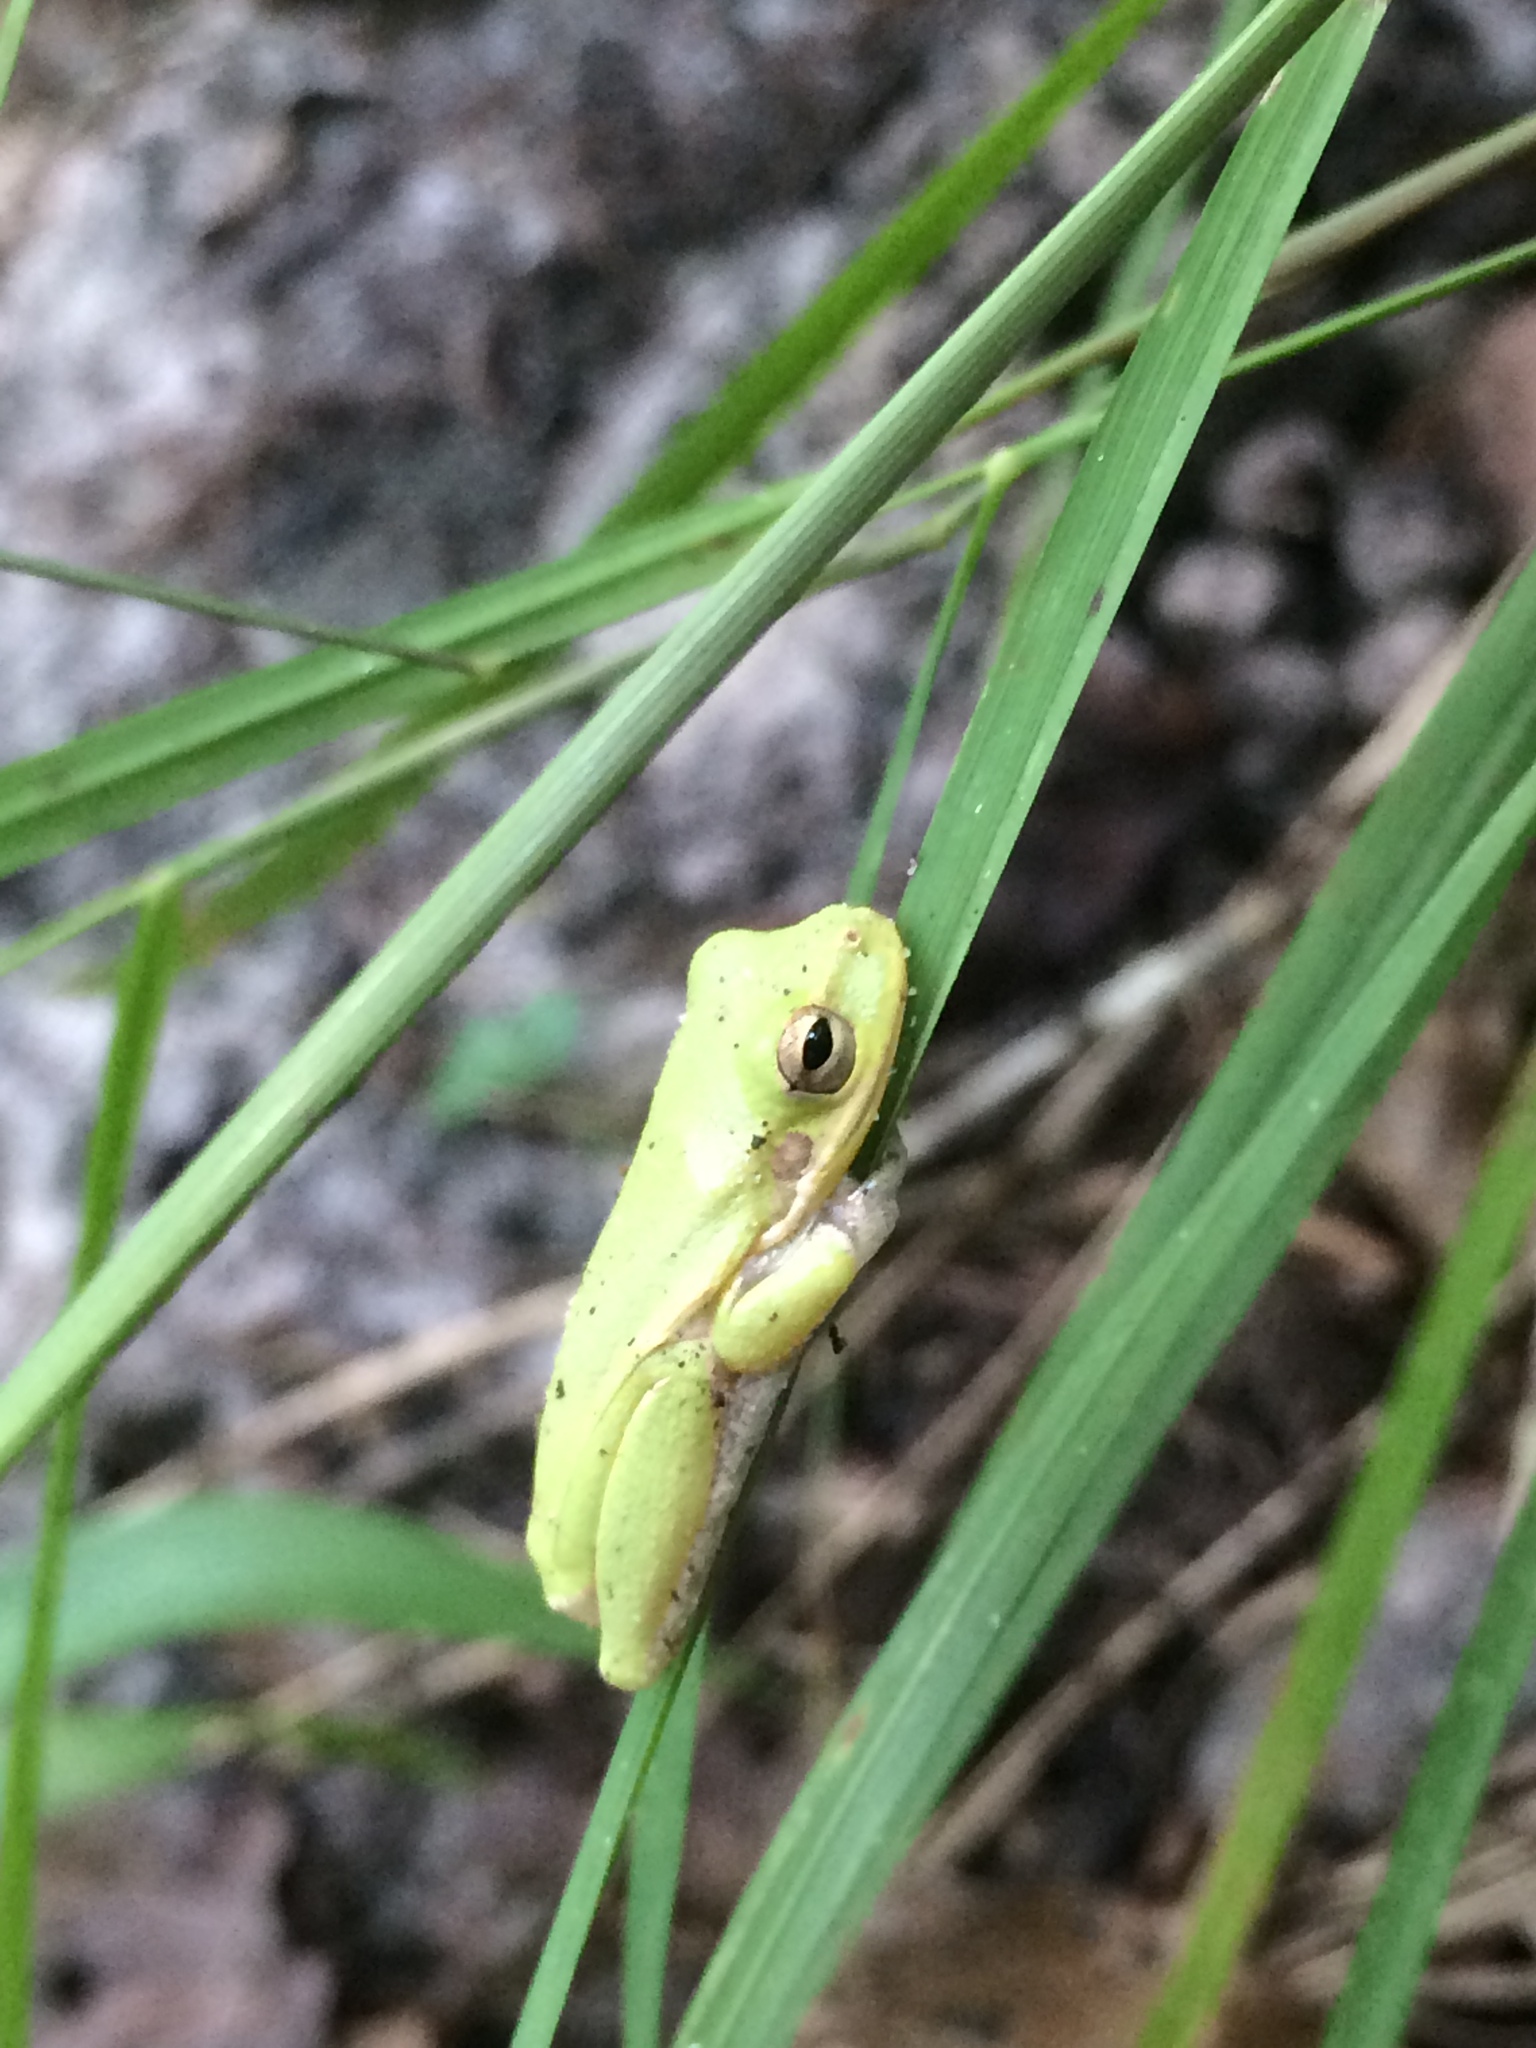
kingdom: Animalia
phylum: Chordata
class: Amphibia
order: Anura
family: Hylidae
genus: Dryophytes
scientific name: Dryophytes squirellus
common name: Squirrel treefrog
